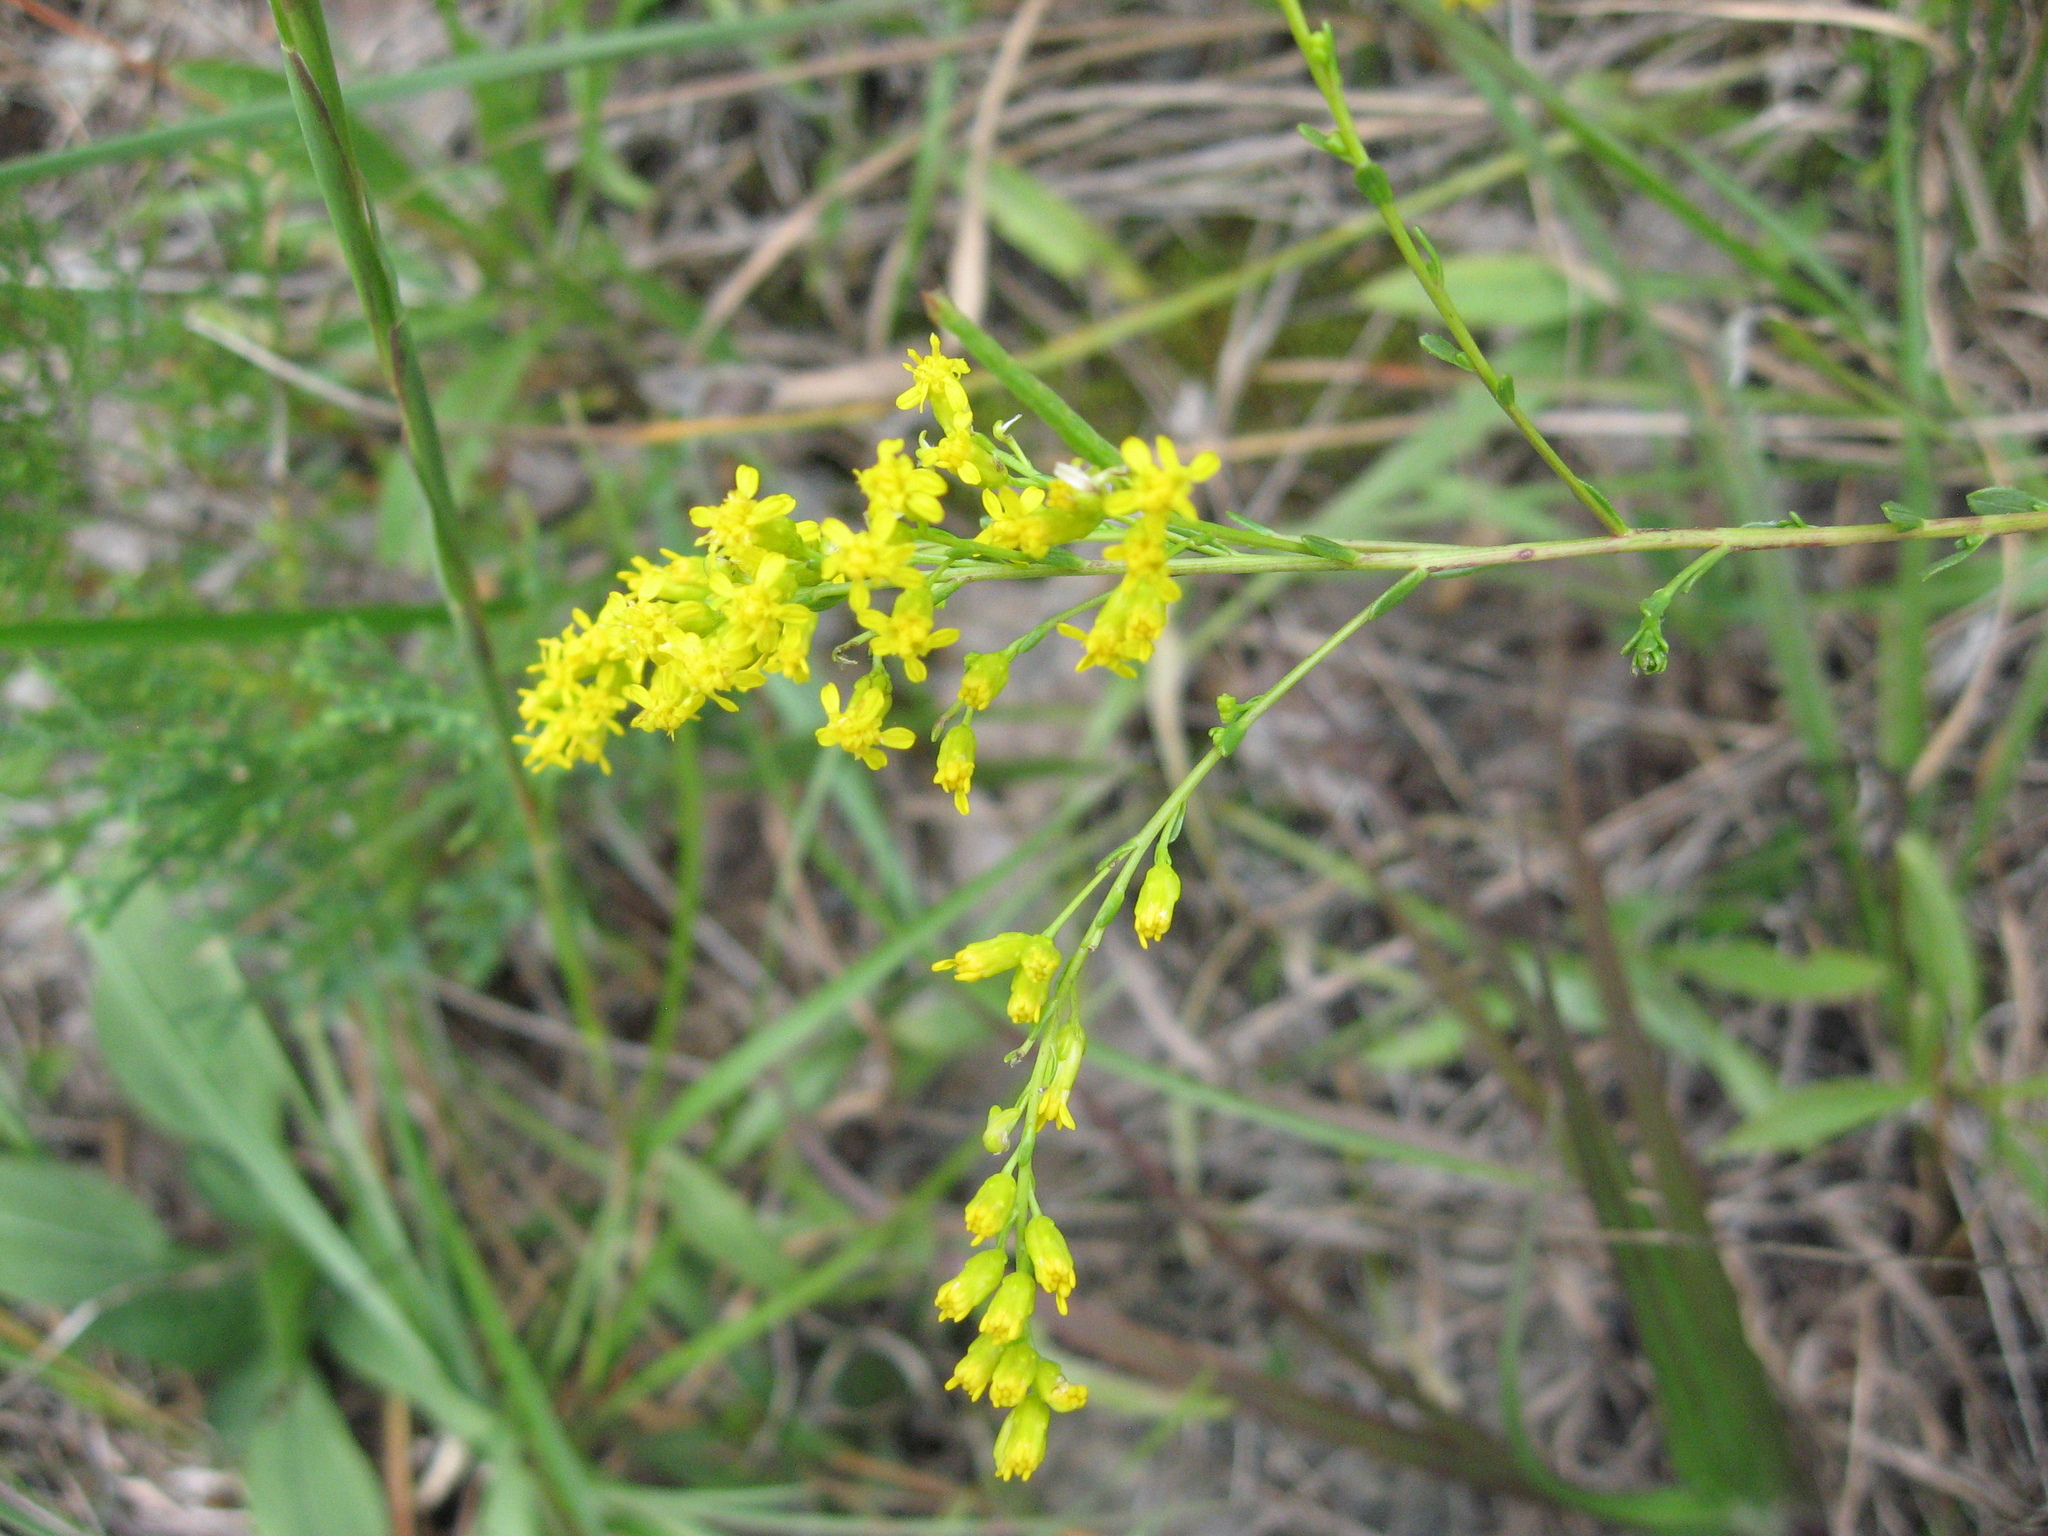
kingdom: Plantae
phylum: Tracheophyta
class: Magnoliopsida
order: Asterales
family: Asteraceae
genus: Solidago
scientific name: Solidago gattingeri
